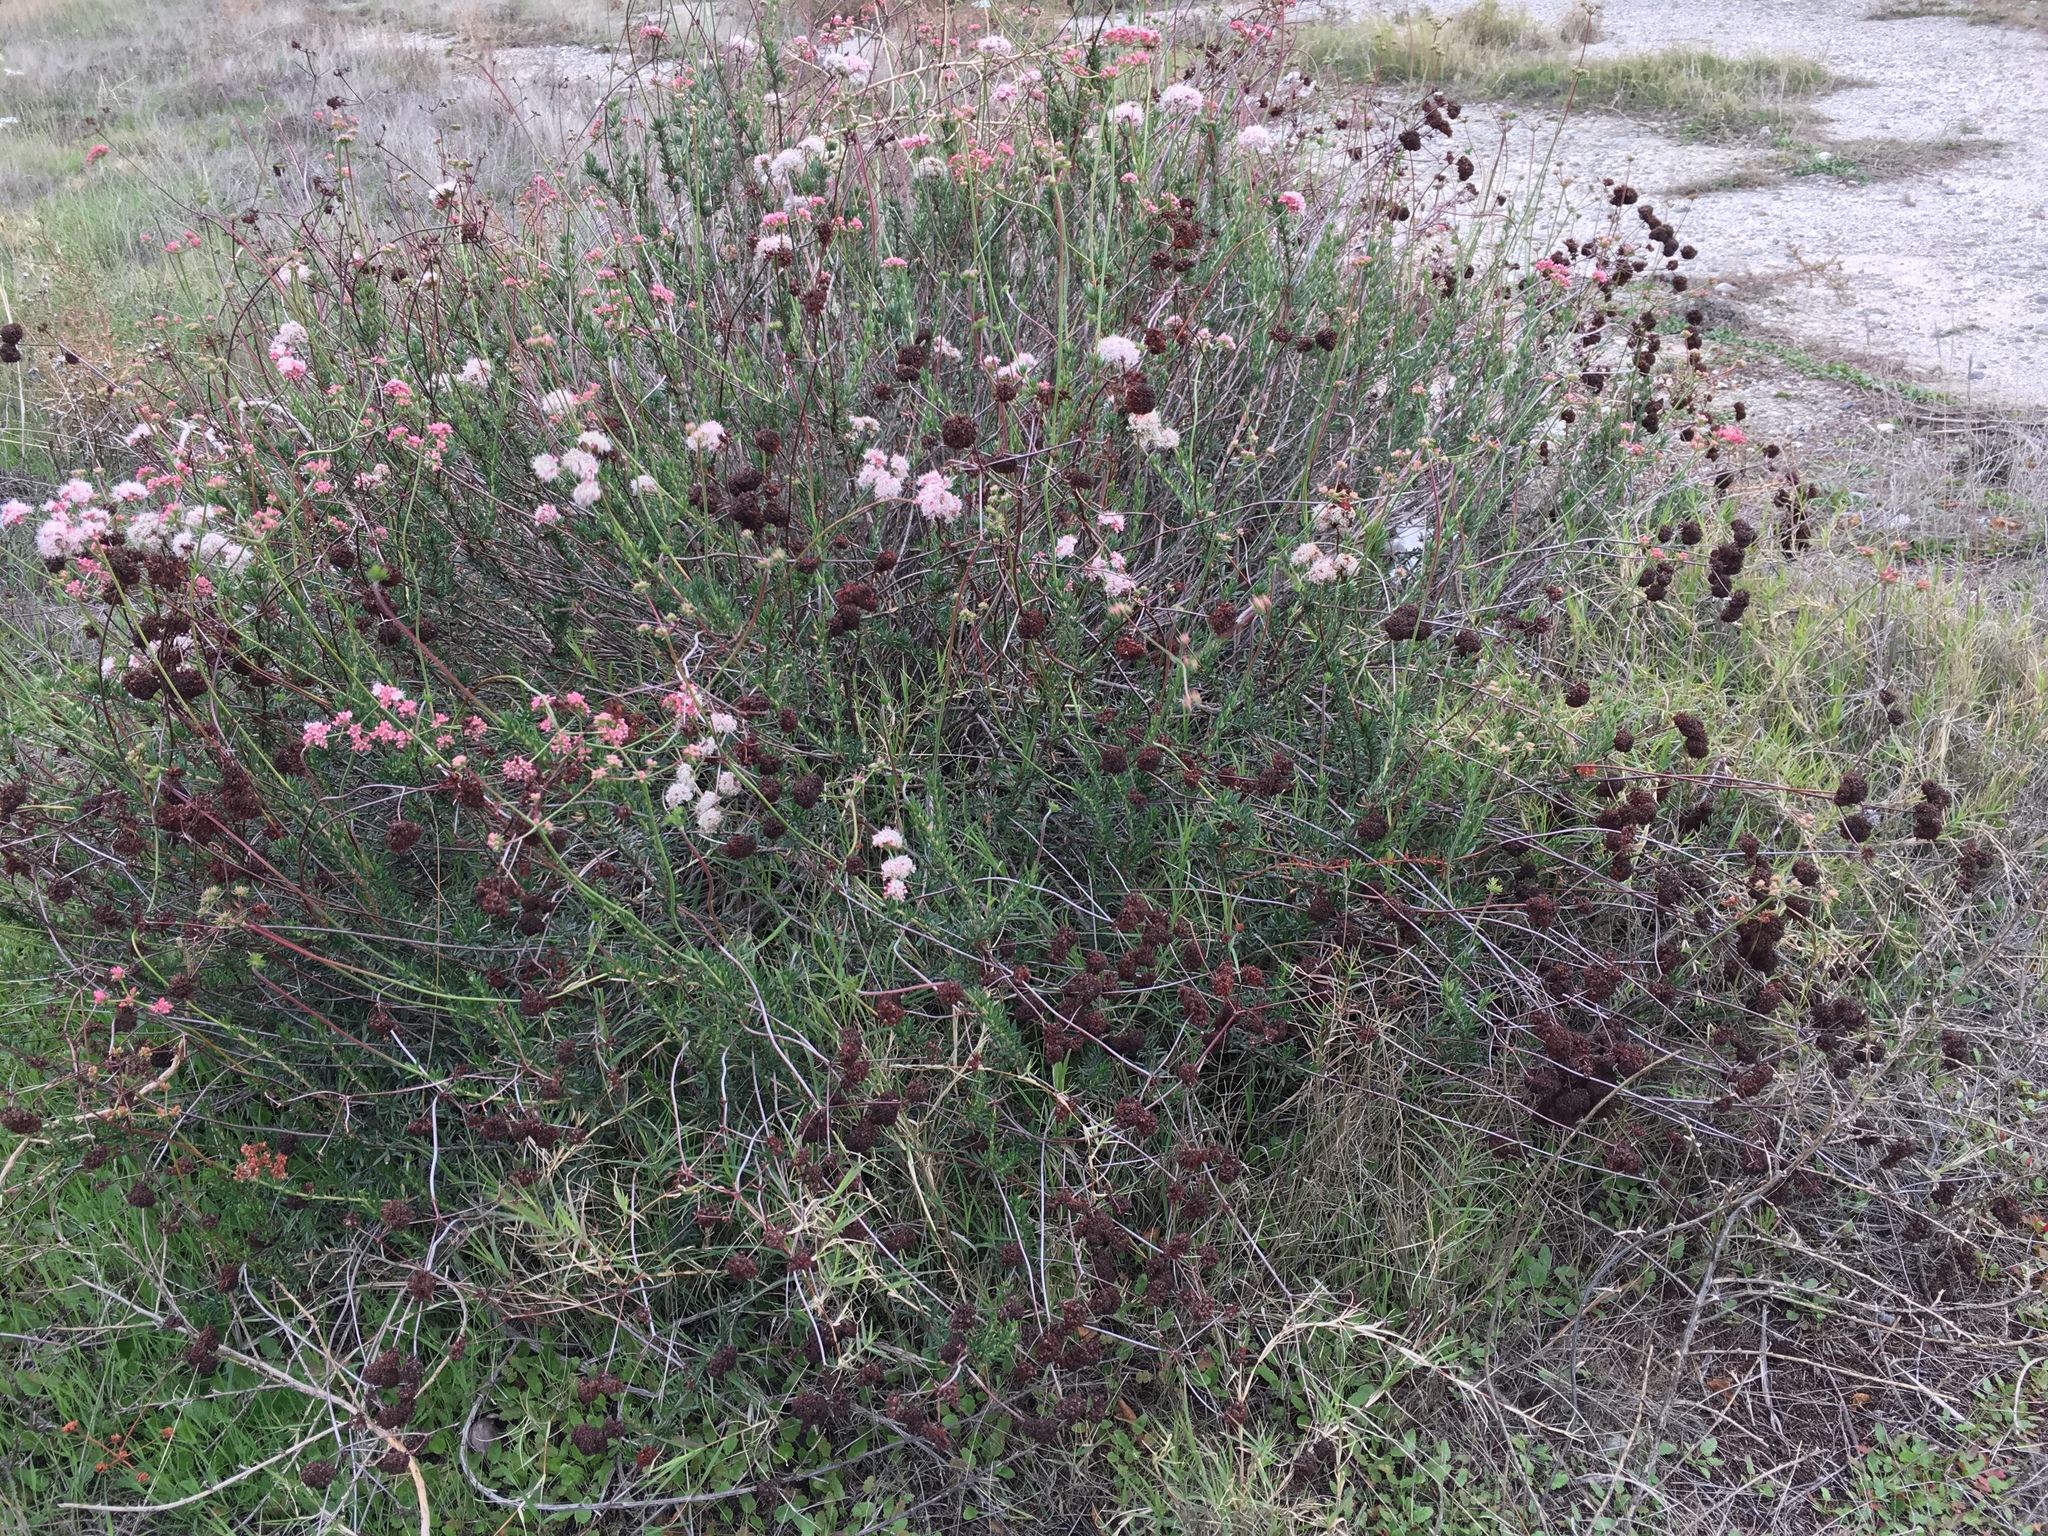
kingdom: Plantae
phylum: Tracheophyta
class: Magnoliopsida
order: Caryophyllales
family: Polygonaceae
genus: Eriogonum
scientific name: Eriogonum fasciculatum
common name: California wild buckwheat
